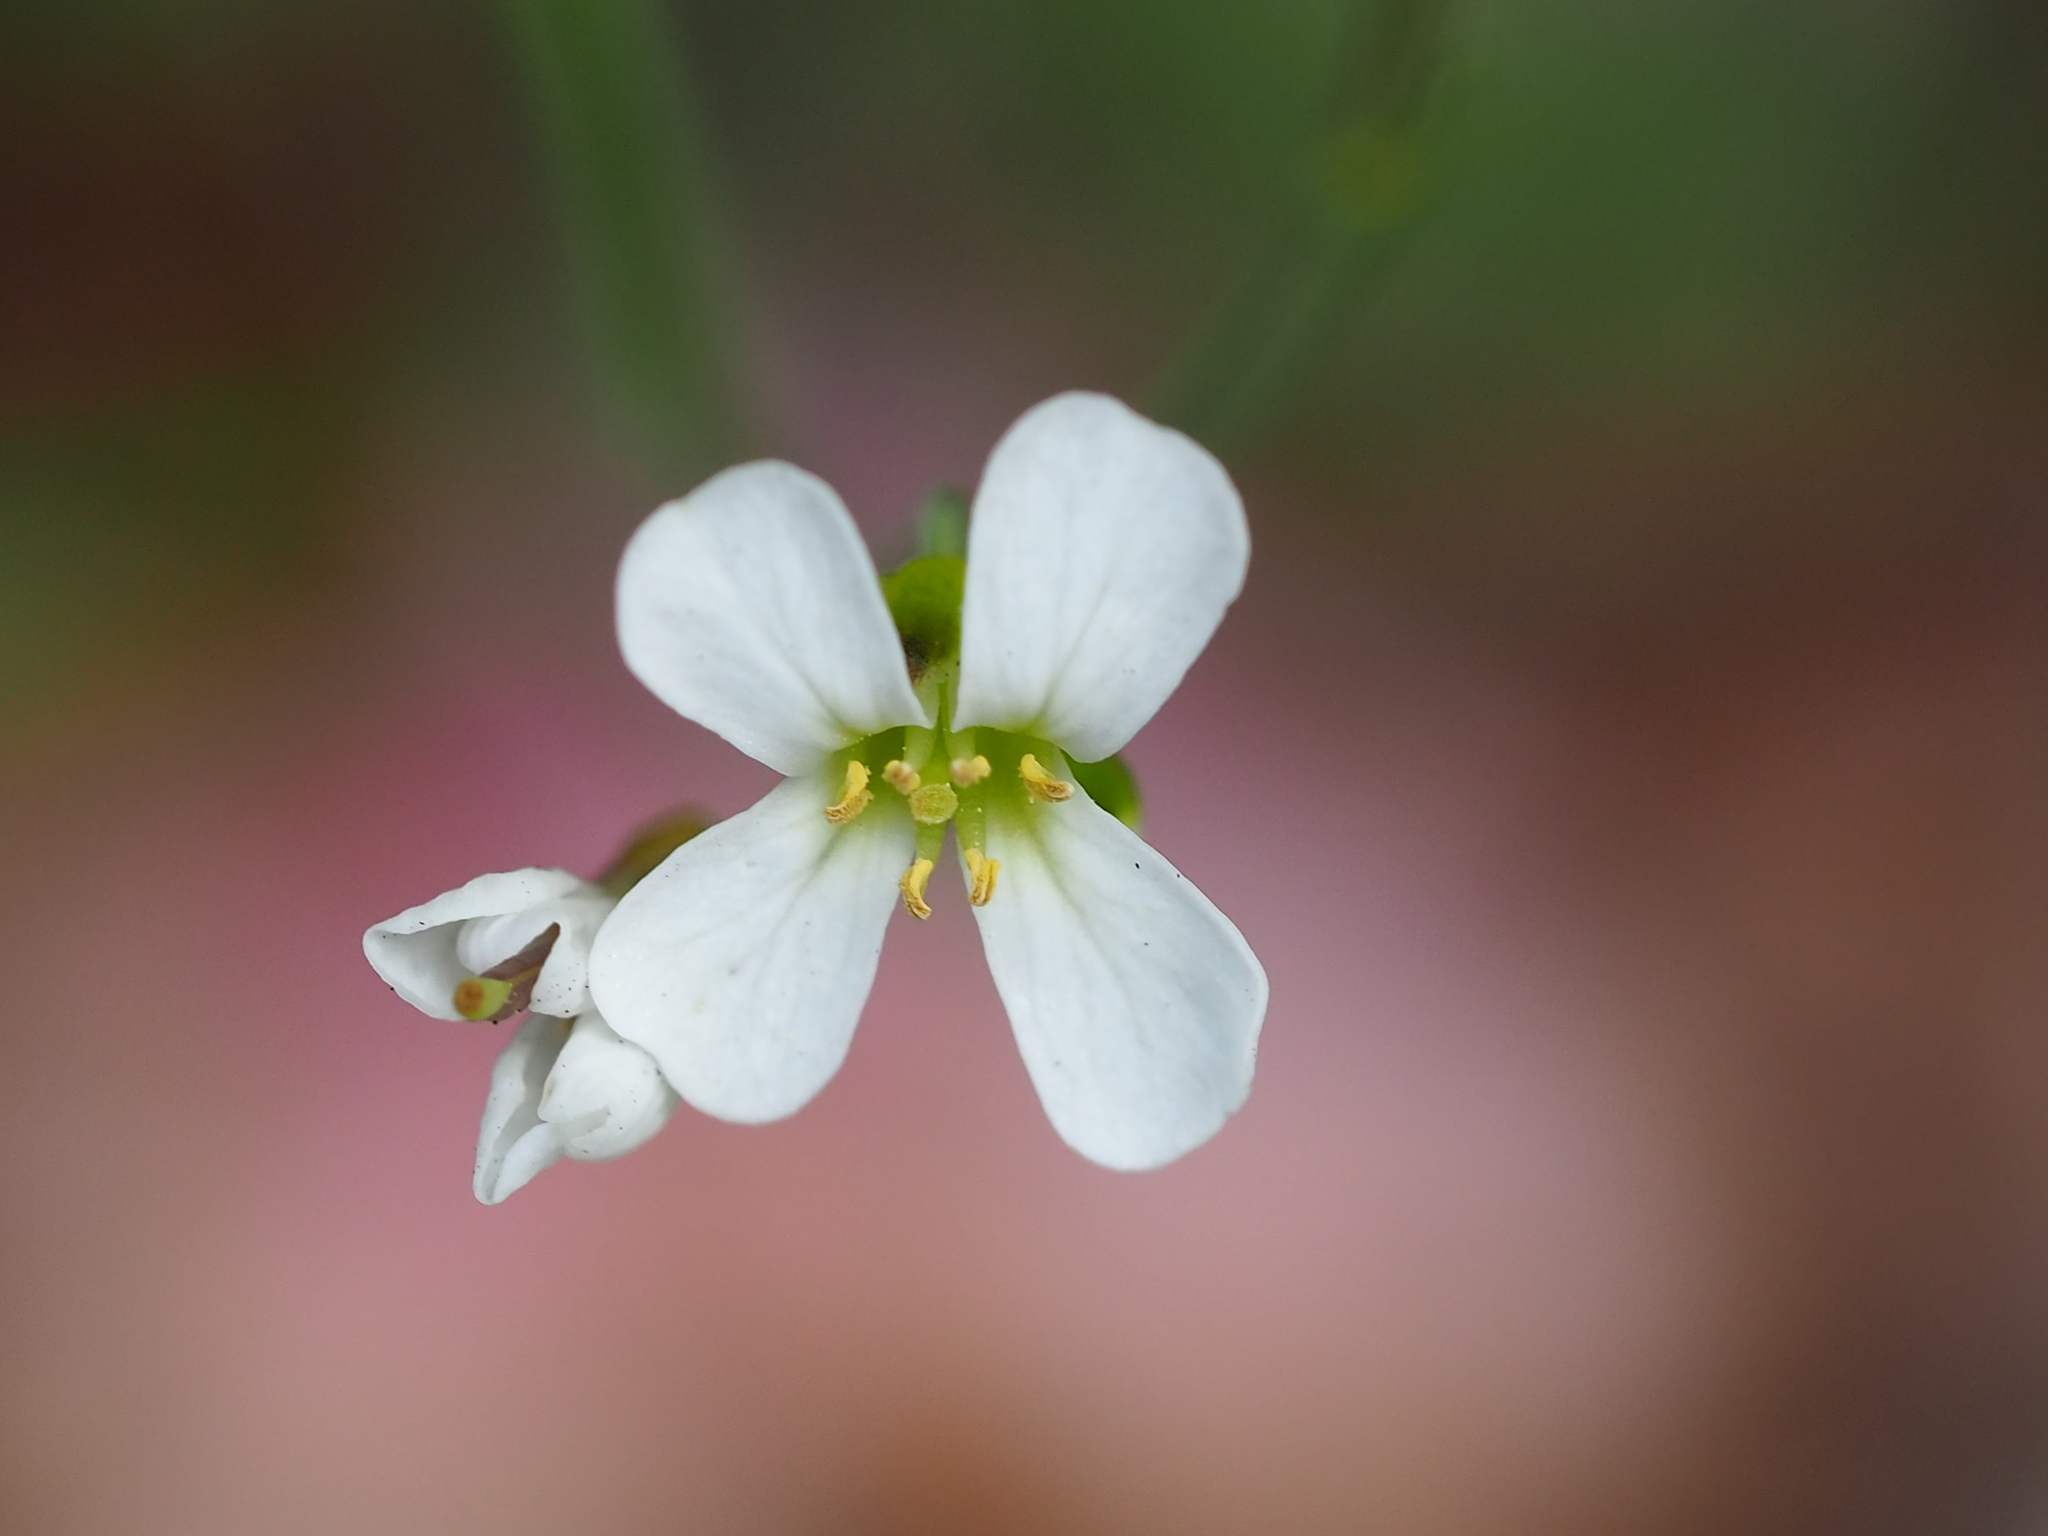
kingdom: Plantae
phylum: Tracheophyta
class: Magnoliopsida
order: Brassicales
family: Brassicaceae
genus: Arabidopsis
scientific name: Arabidopsis lyrata
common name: Lyrate rockcress
